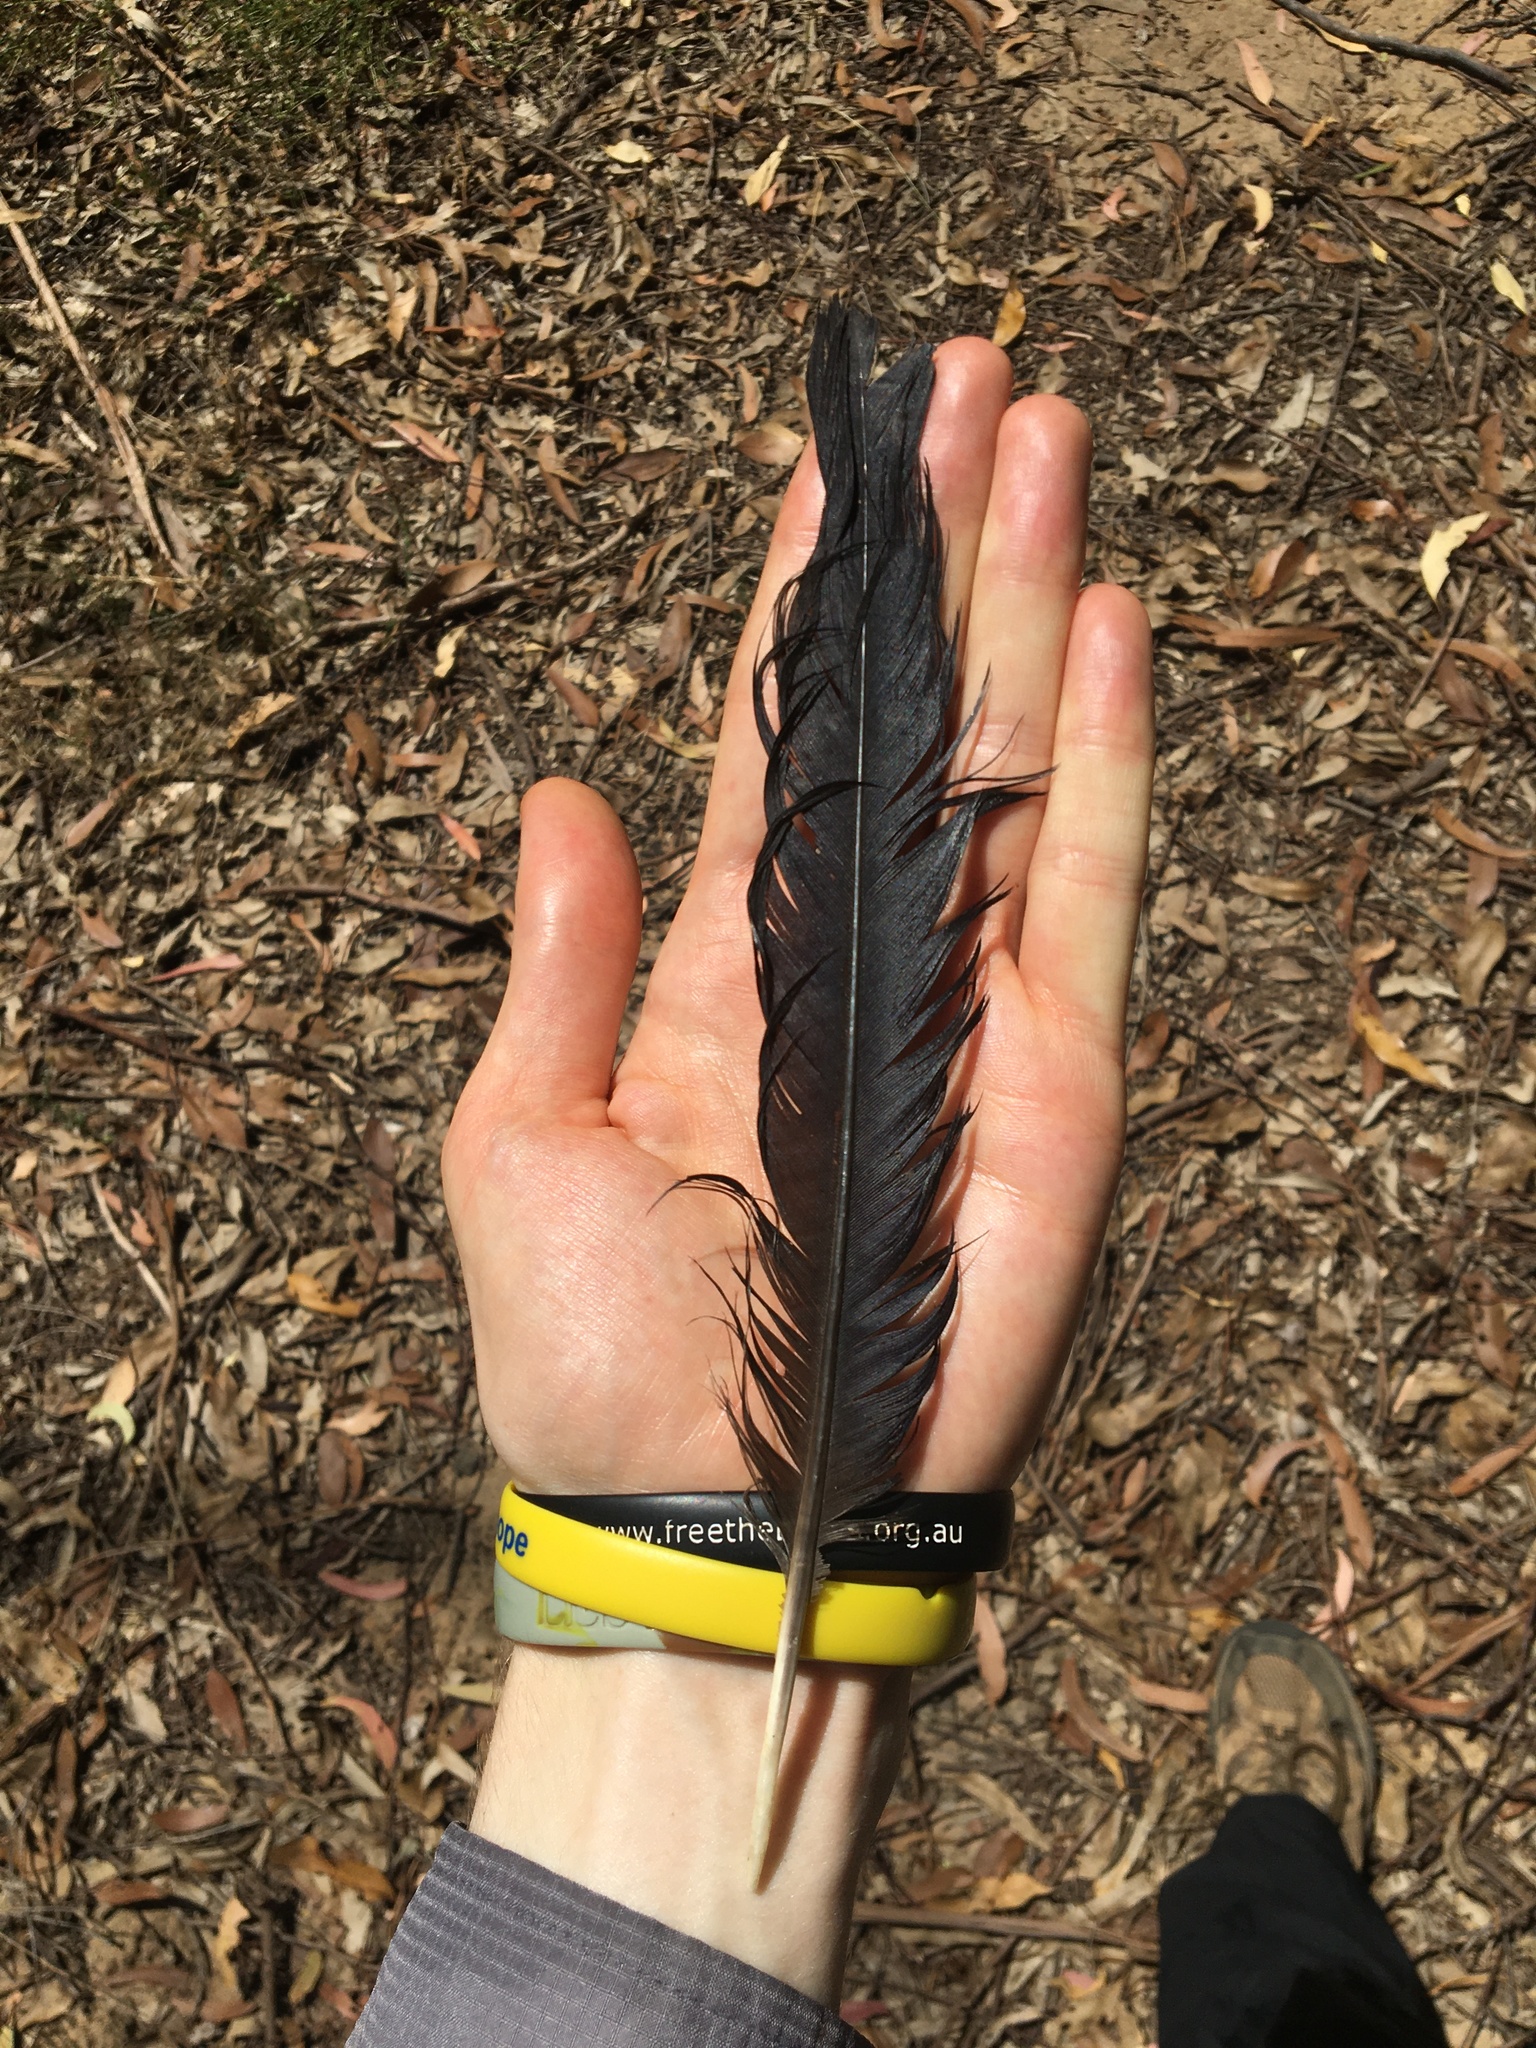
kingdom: Animalia
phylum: Chordata
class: Aves
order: Passeriformes
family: Corvidae
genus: Corvus
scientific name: Corvus coronoides
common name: Australian raven
